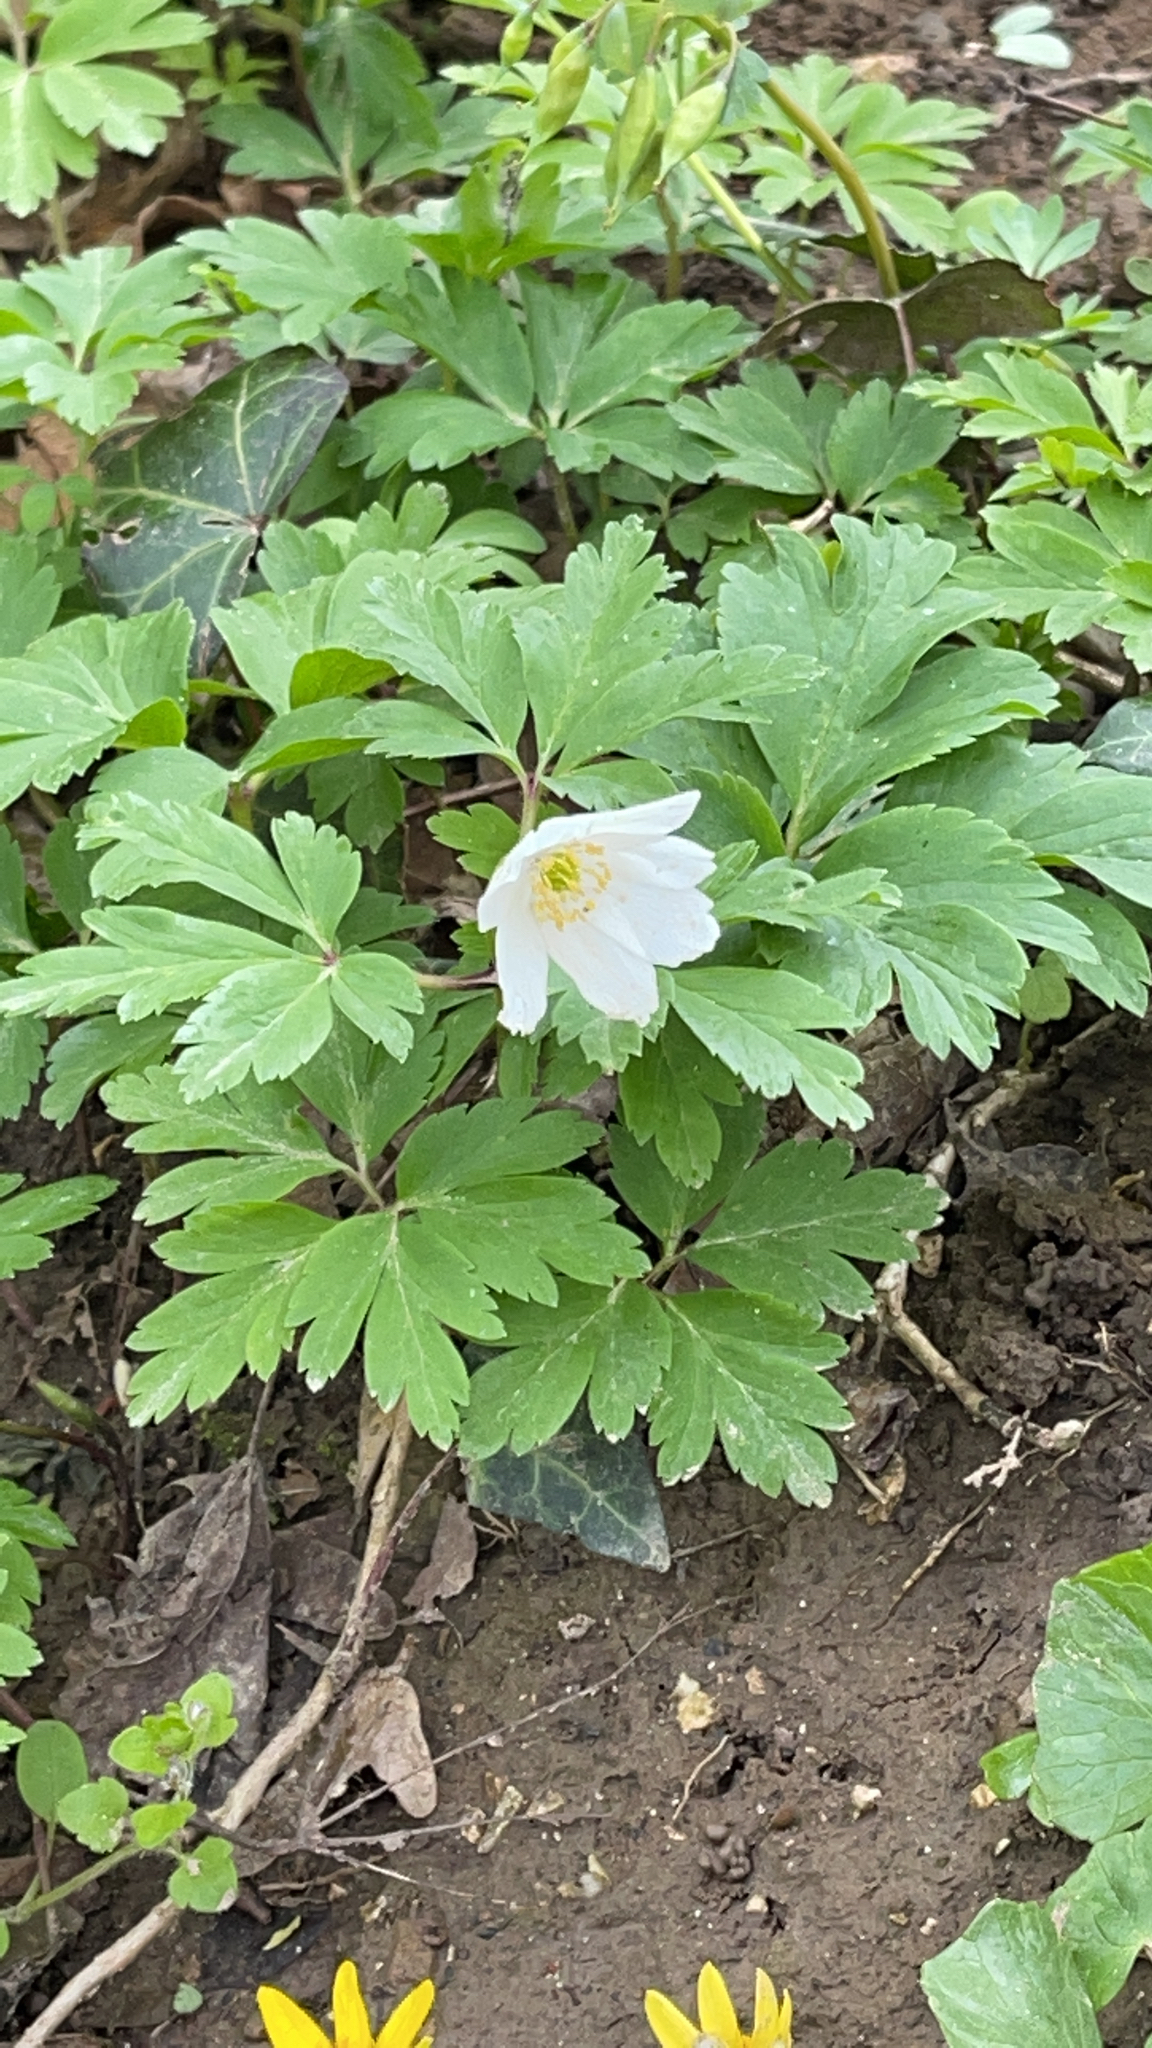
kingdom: Plantae
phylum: Tracheophyta
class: Magnoliopsida
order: Ranunculales
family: Ranunculaceae
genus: Anemone
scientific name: Anemone nemorosa
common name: Wood anemone
